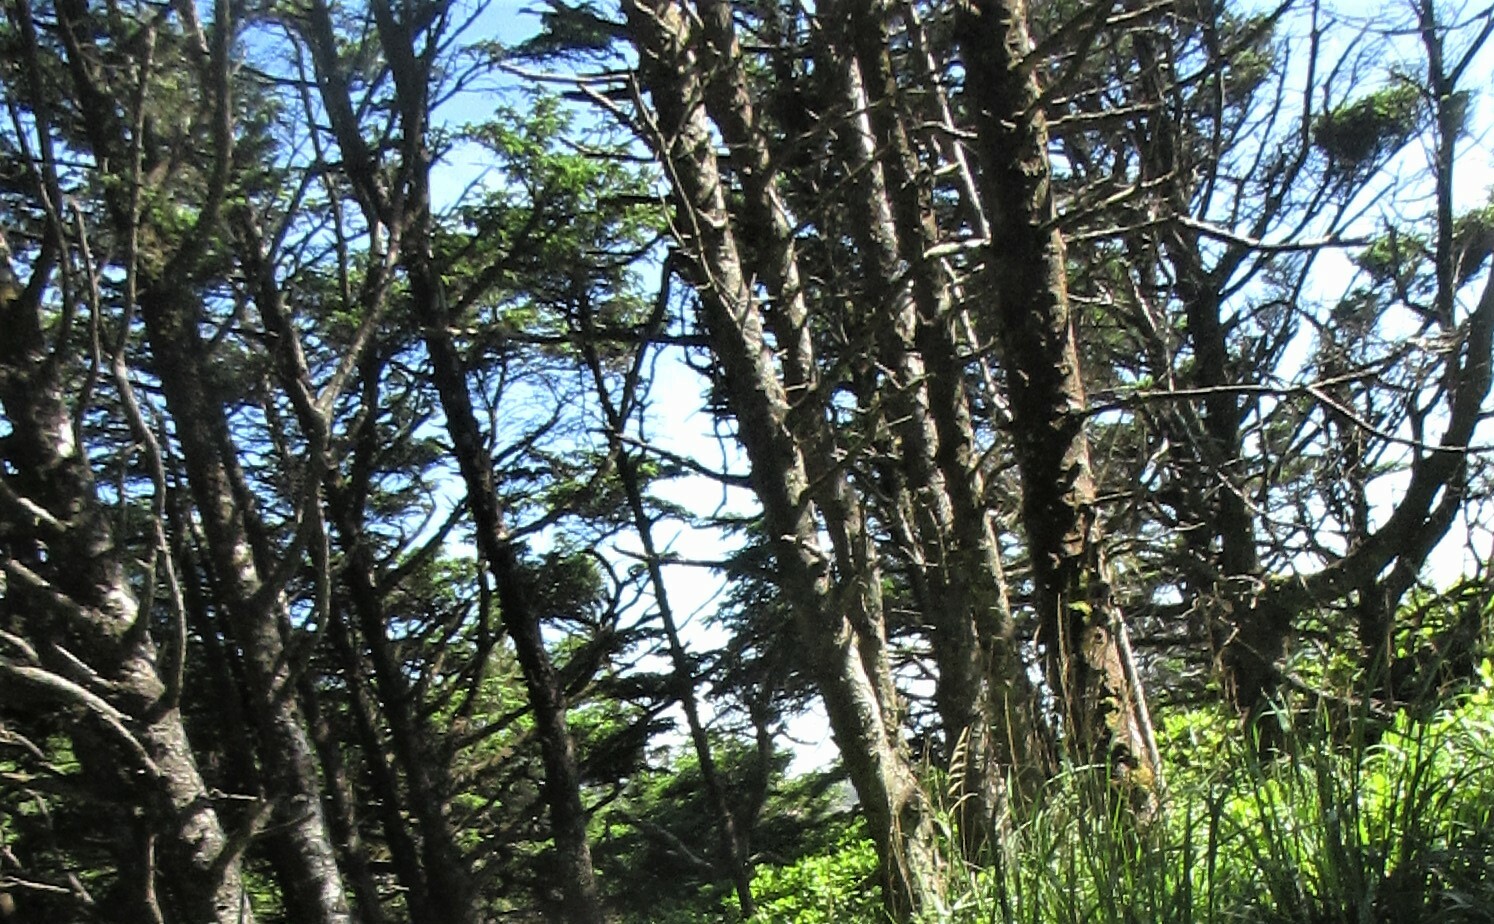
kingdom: Plantae
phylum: Tracheophyta
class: Pinopsida
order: Pinales
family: Pinaceae
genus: Picea
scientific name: Picea sitchensis
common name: Sitka spruce
